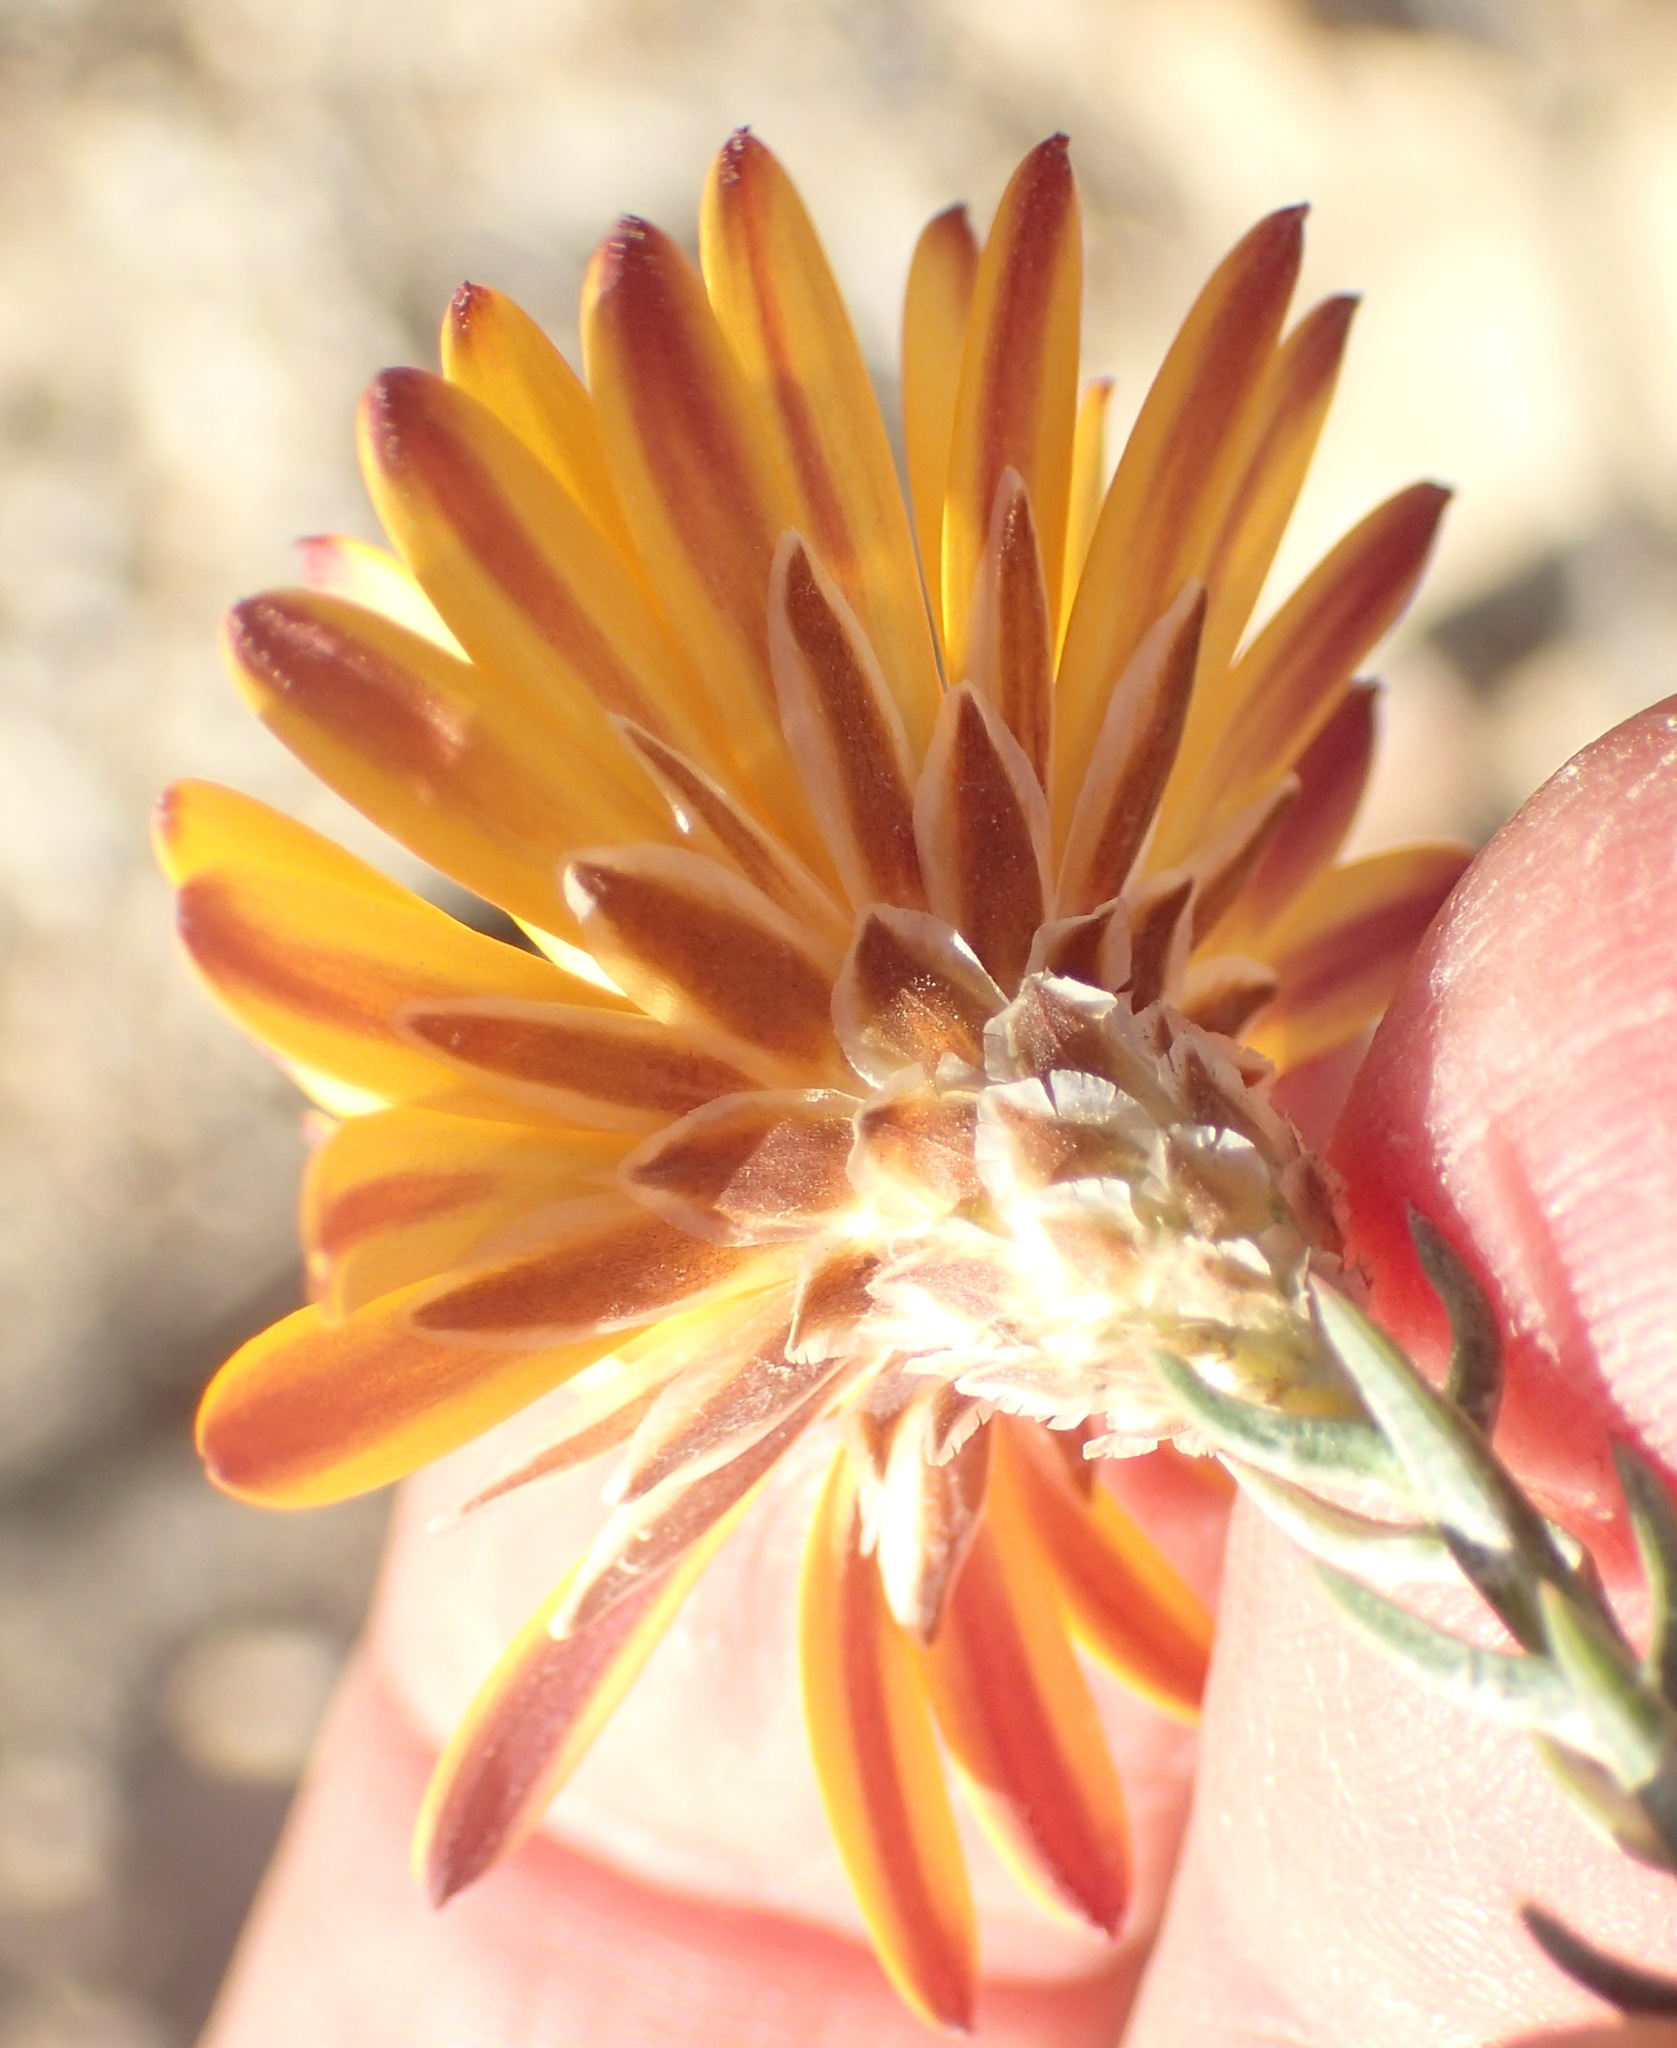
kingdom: Plantae
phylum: Tracheophyta
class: Magnoliopsida
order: Asterales
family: Asteraceae
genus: Oedera
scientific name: Oedera decussata
